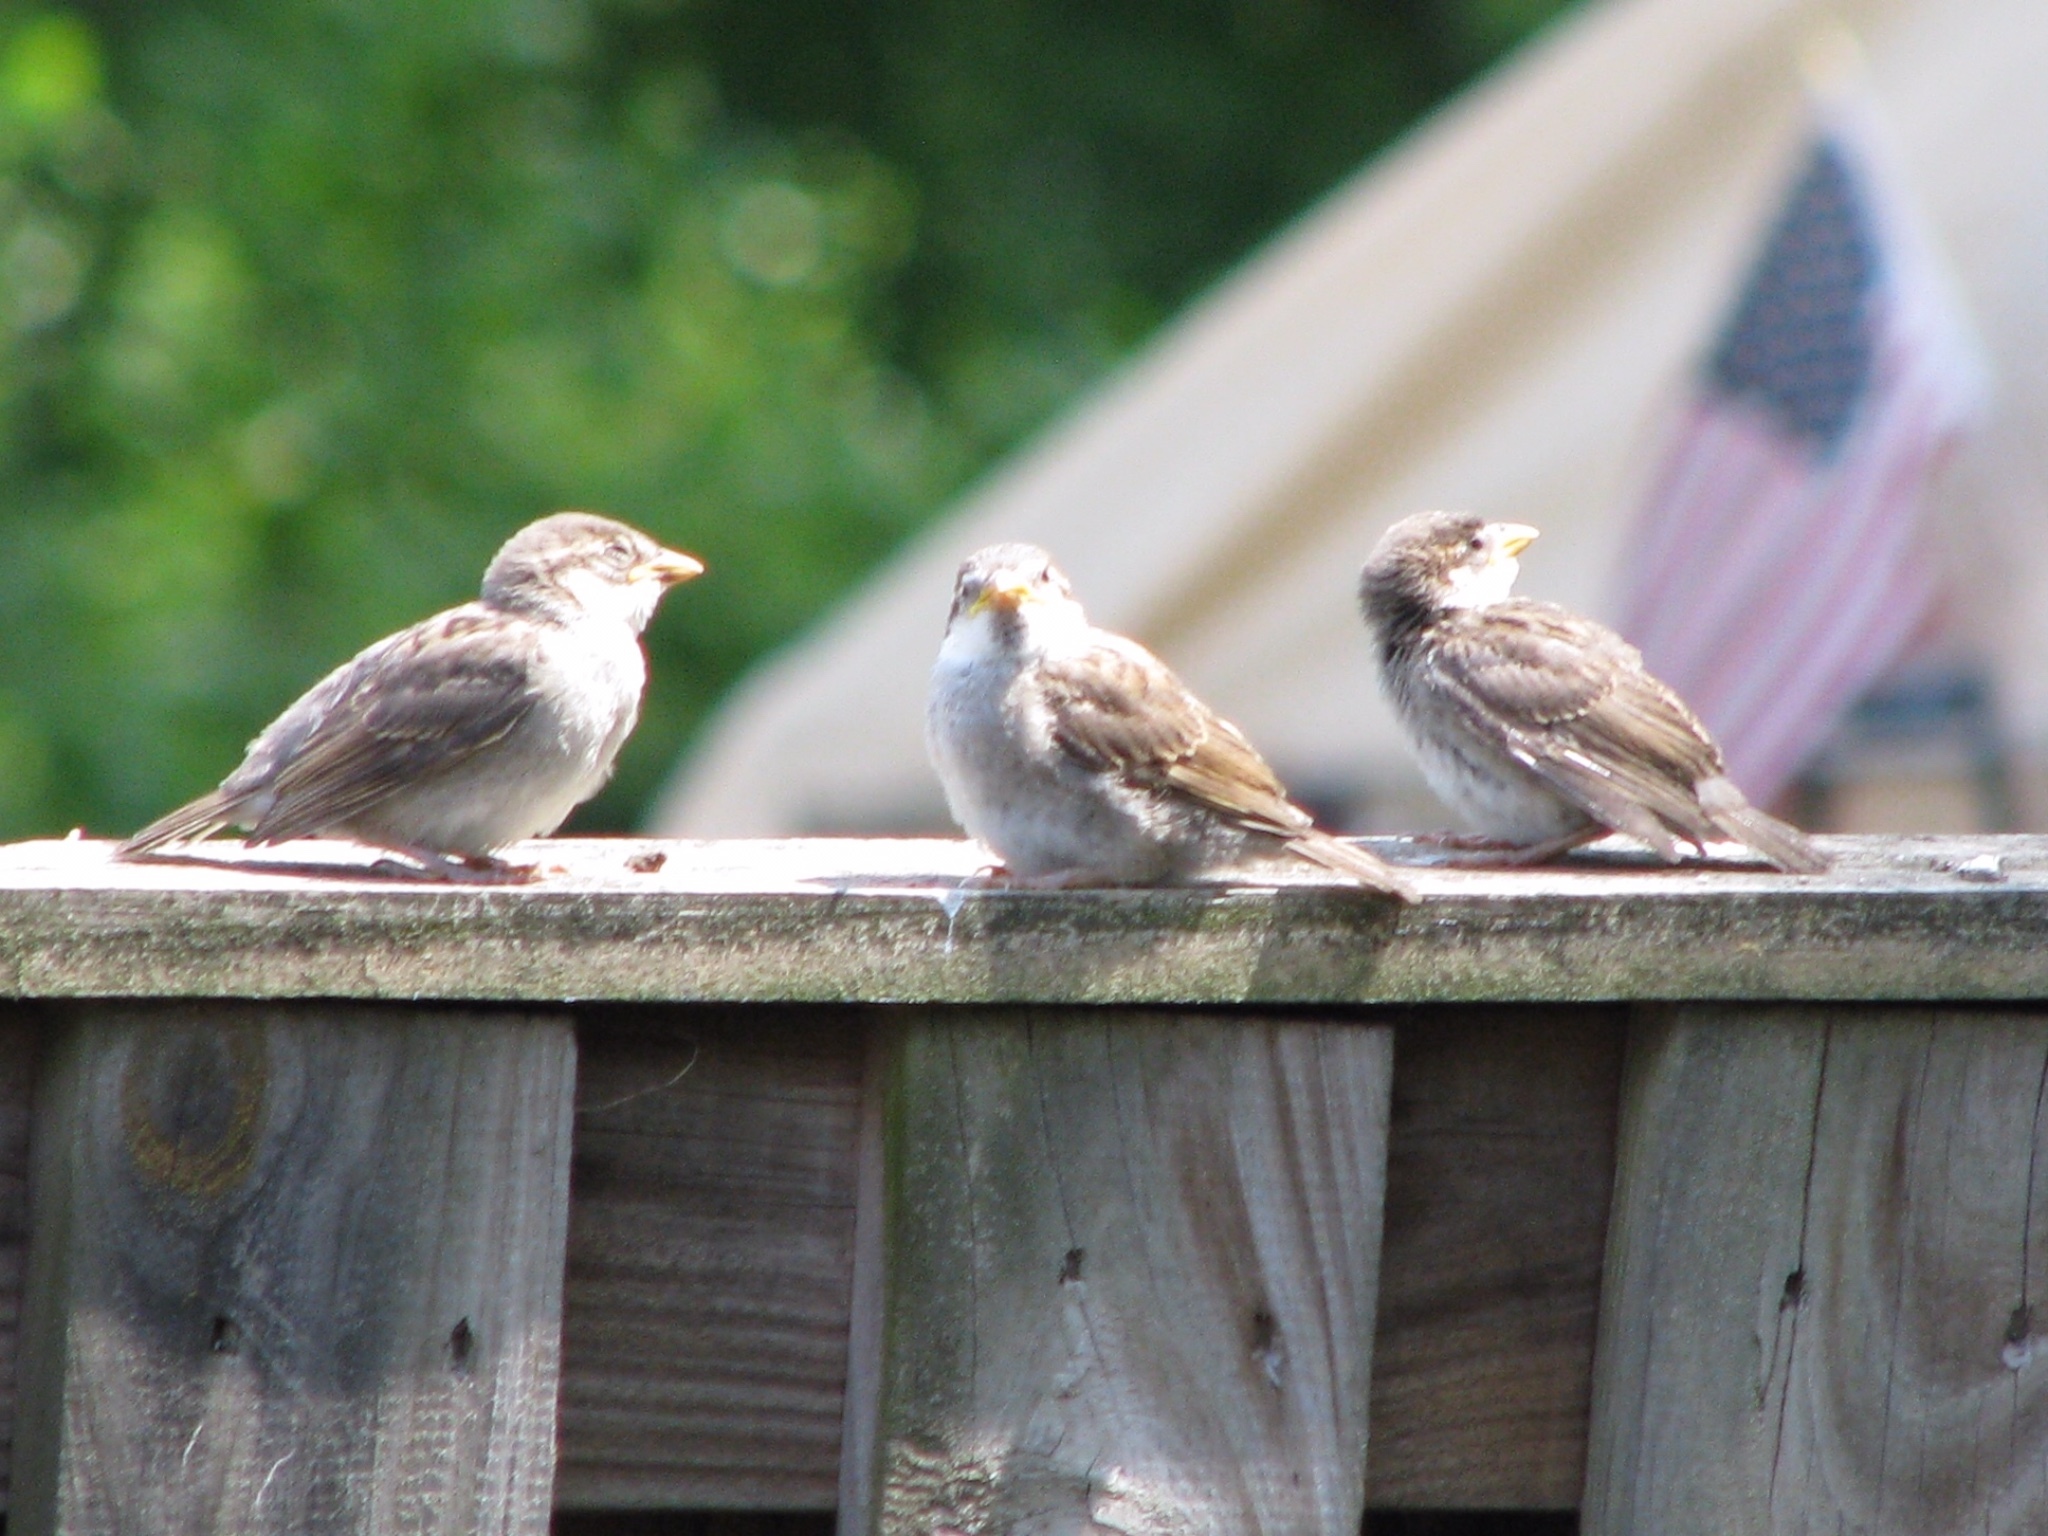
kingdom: Animalia
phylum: Chordata
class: Aves
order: Passeriformes
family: Passeridae
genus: Passer
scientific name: Passer domesticus
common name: House sparrow
